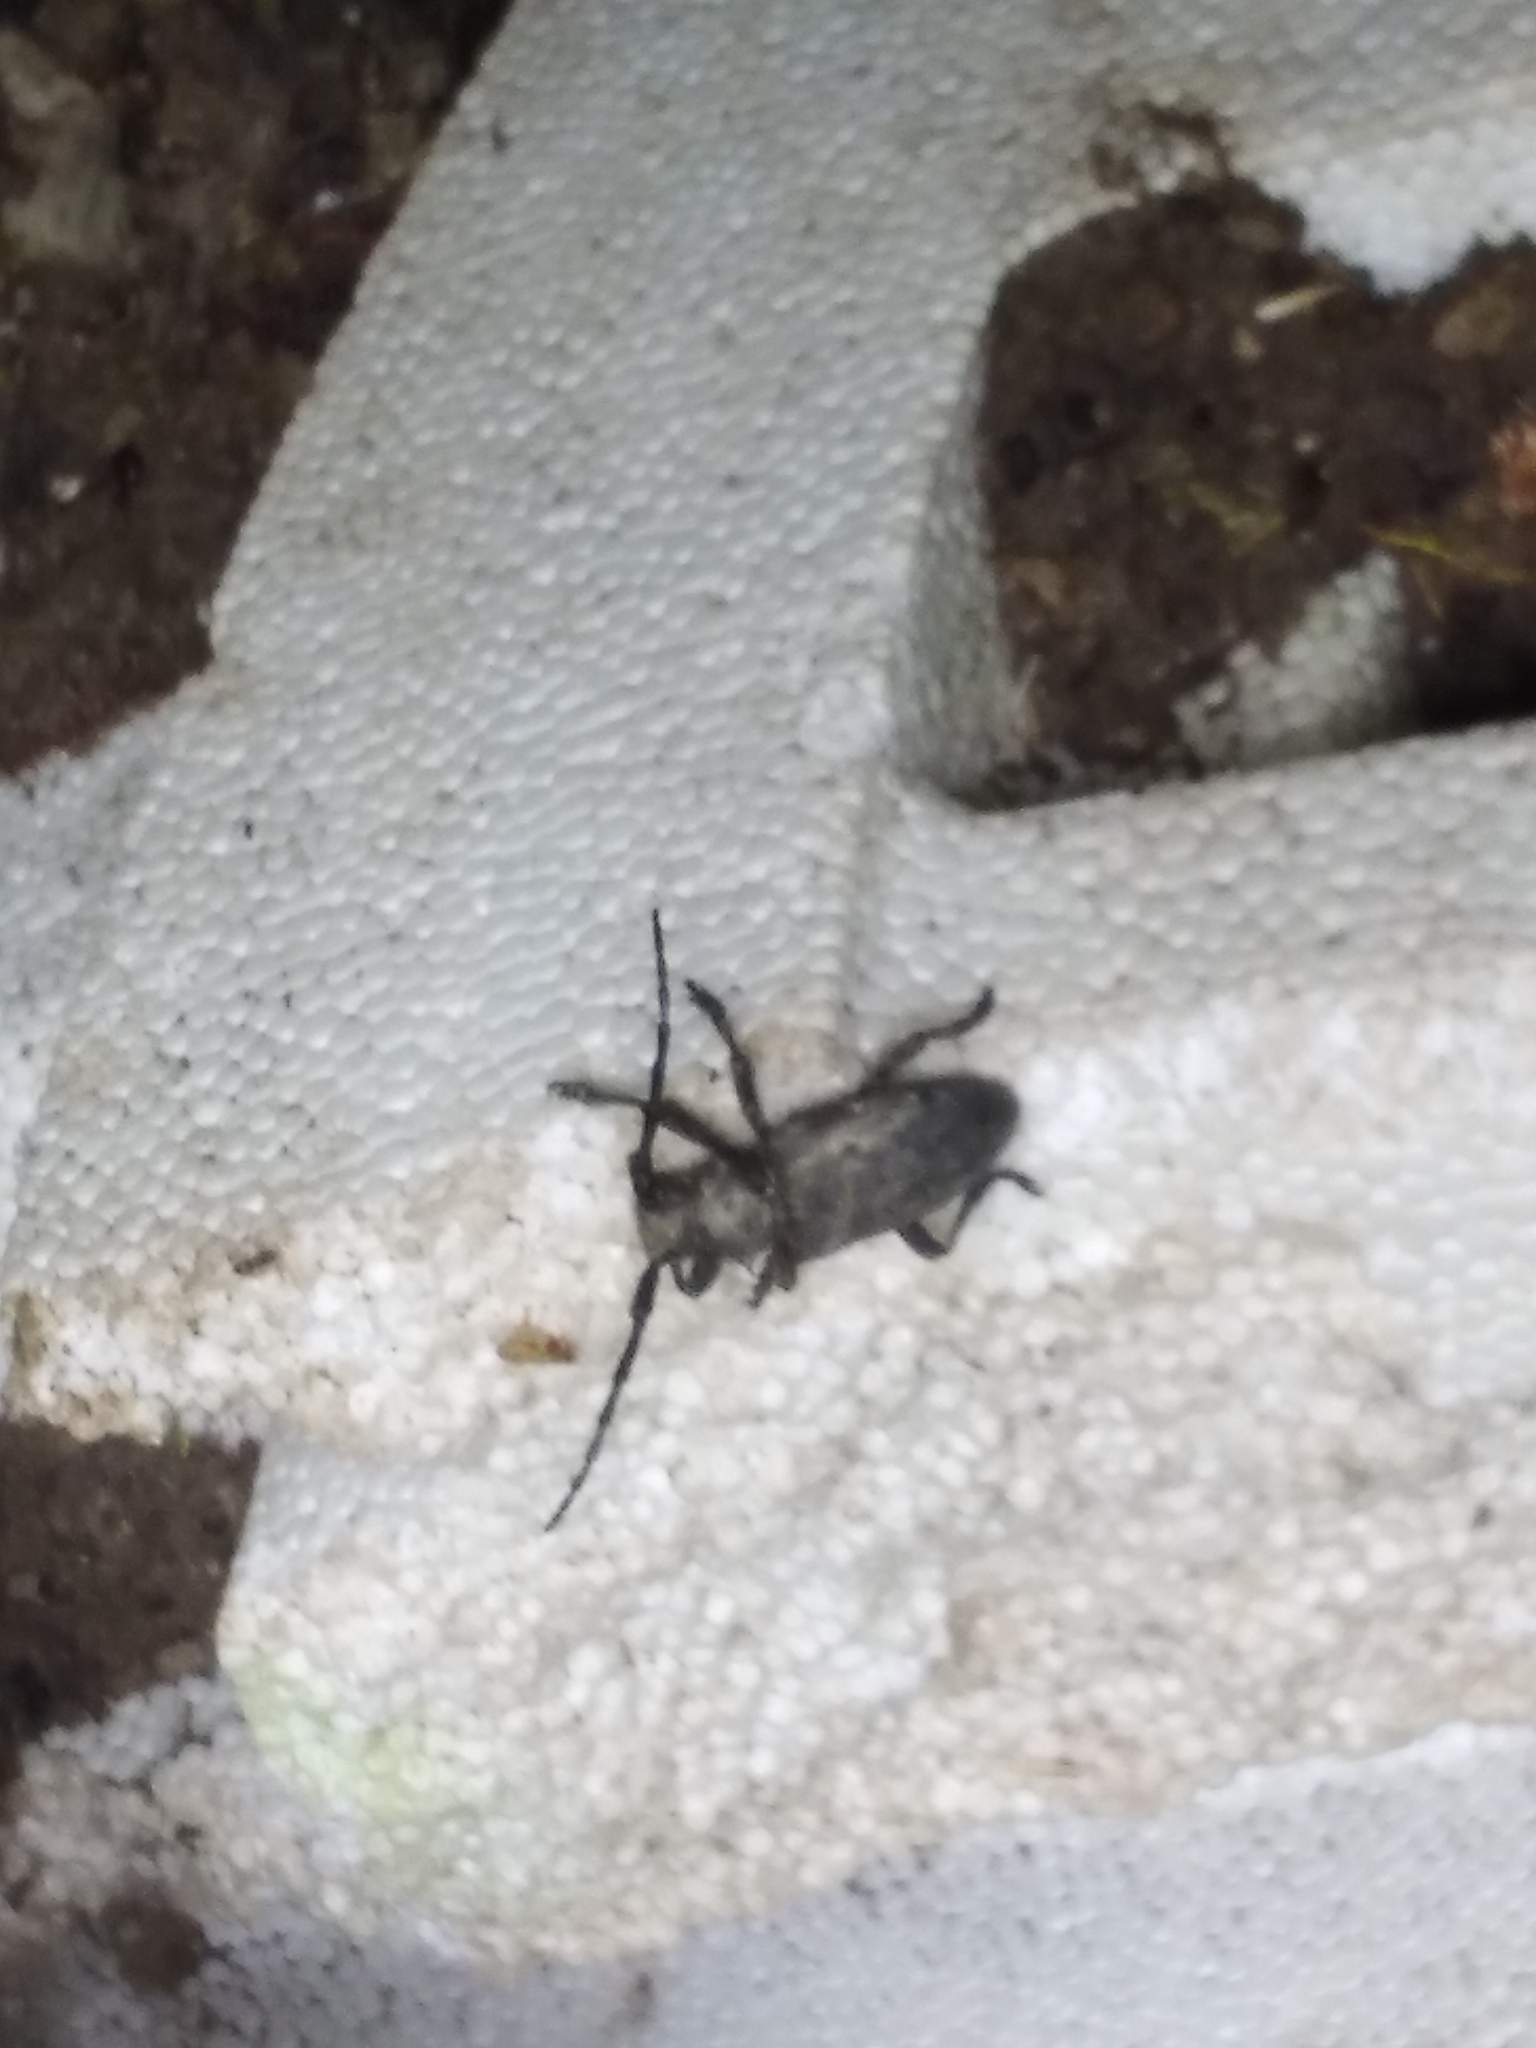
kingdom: Animalia
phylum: Arthropoda
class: Insecta
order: Coleoptera
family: Cerambycidae
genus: Lamia
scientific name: Lamia textor
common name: Weaver beetle
